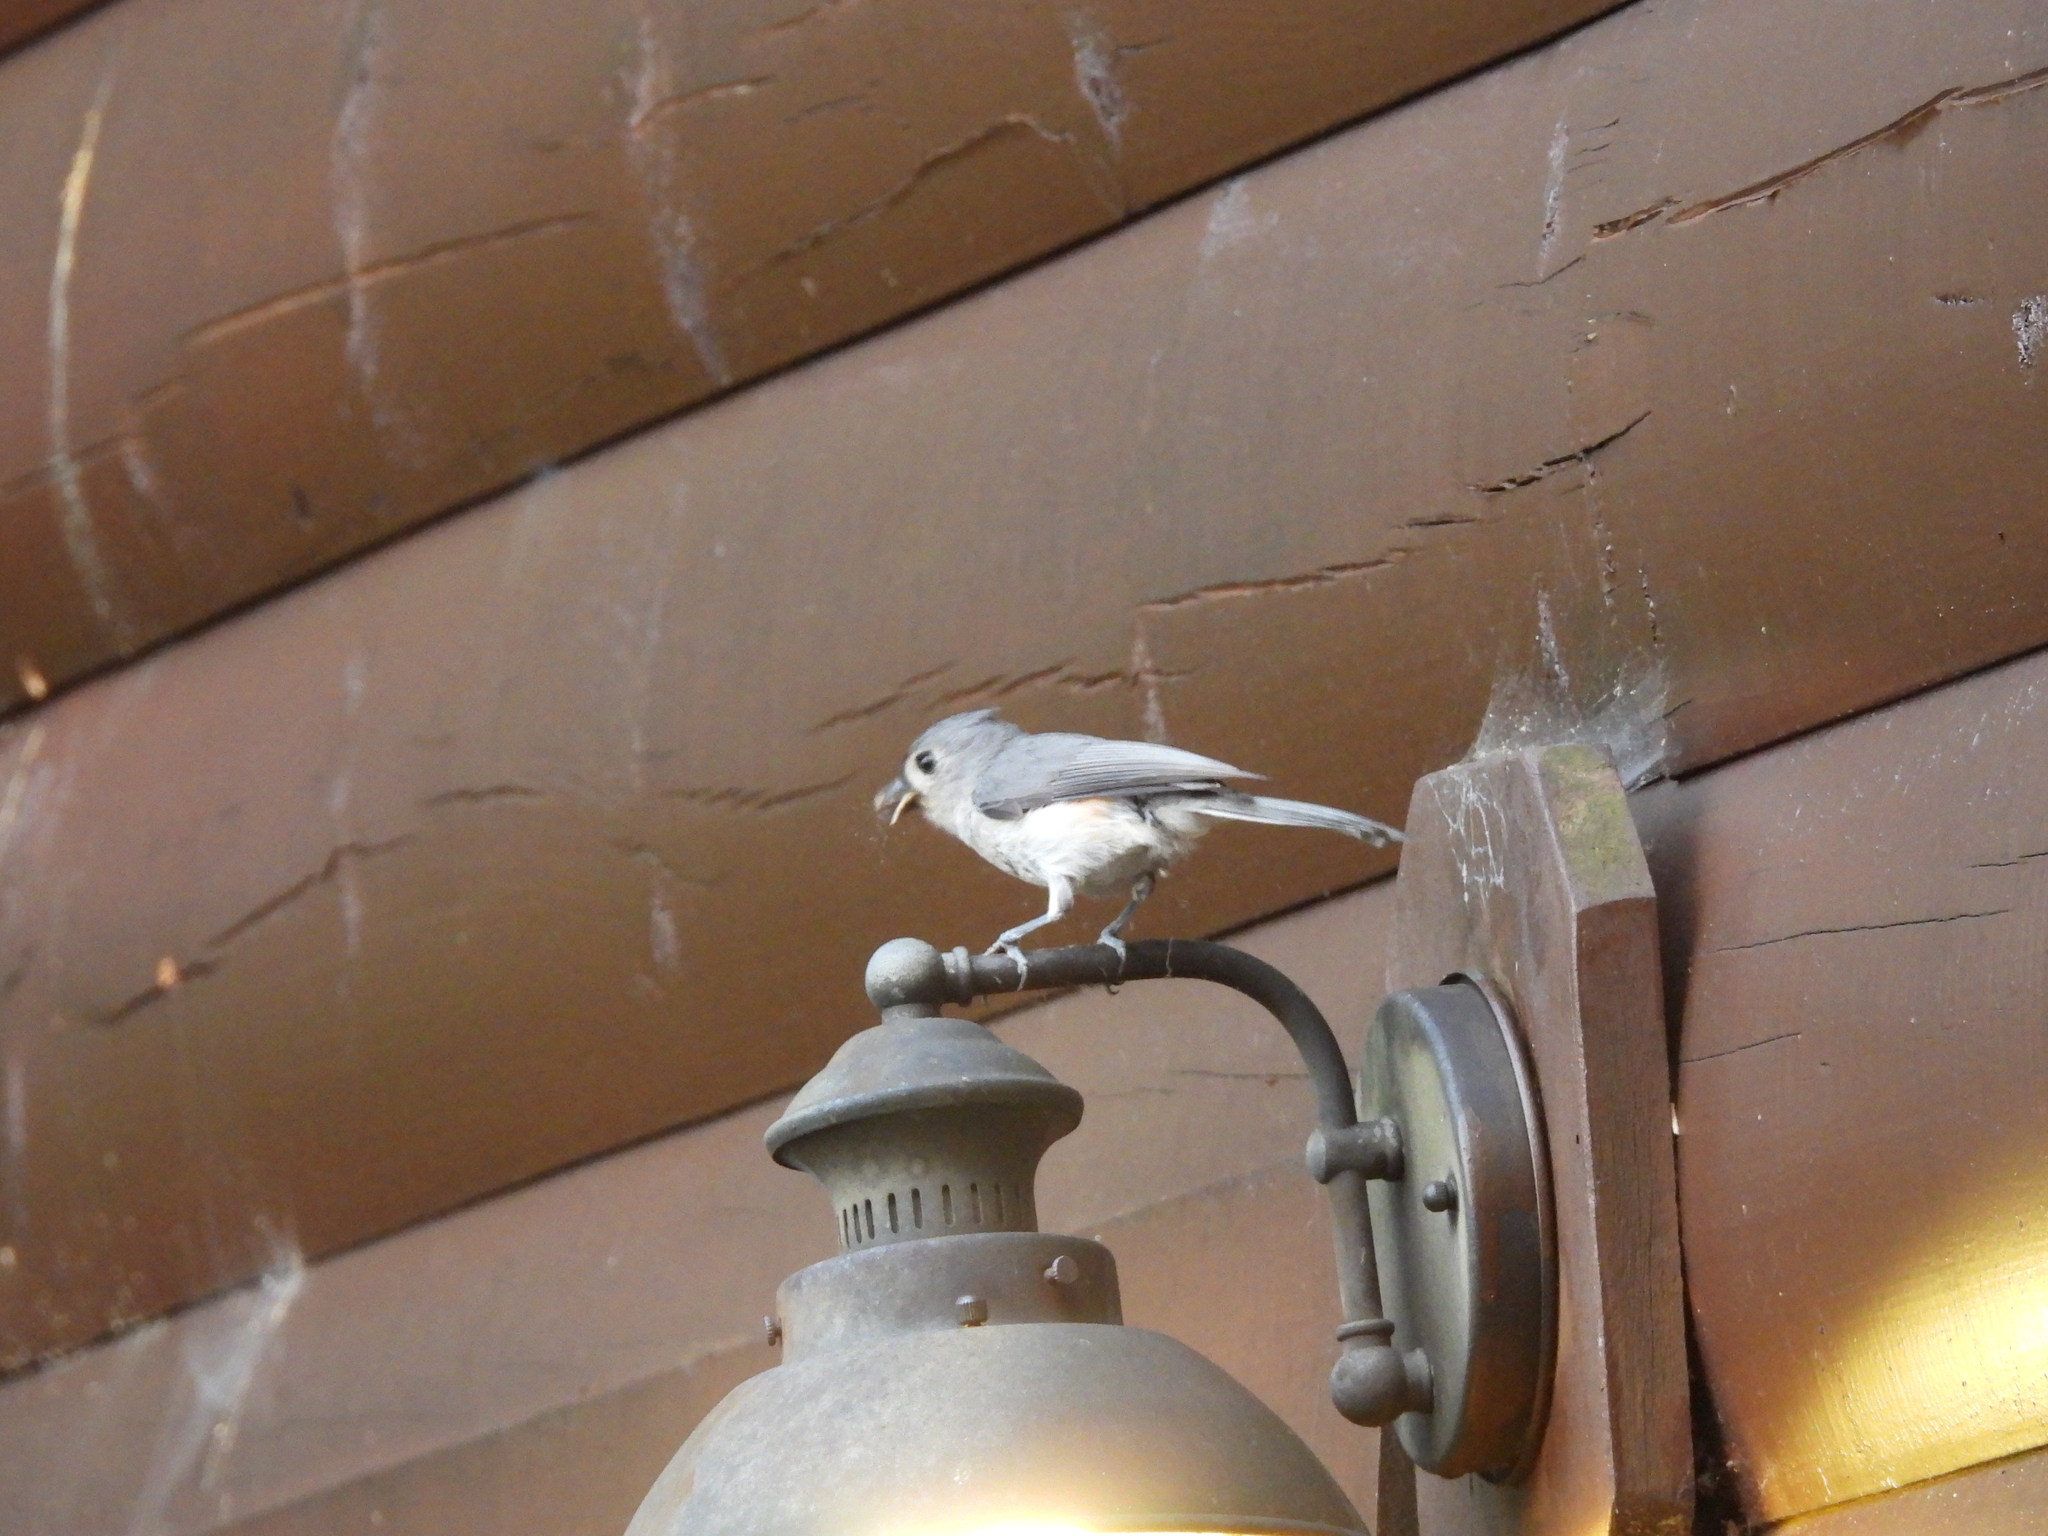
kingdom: Animalia
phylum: Chordata
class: Aves
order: Passeriformes
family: Paridae
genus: Baeolophus
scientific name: Baeolophus bicolor
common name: Tufted titmouse
